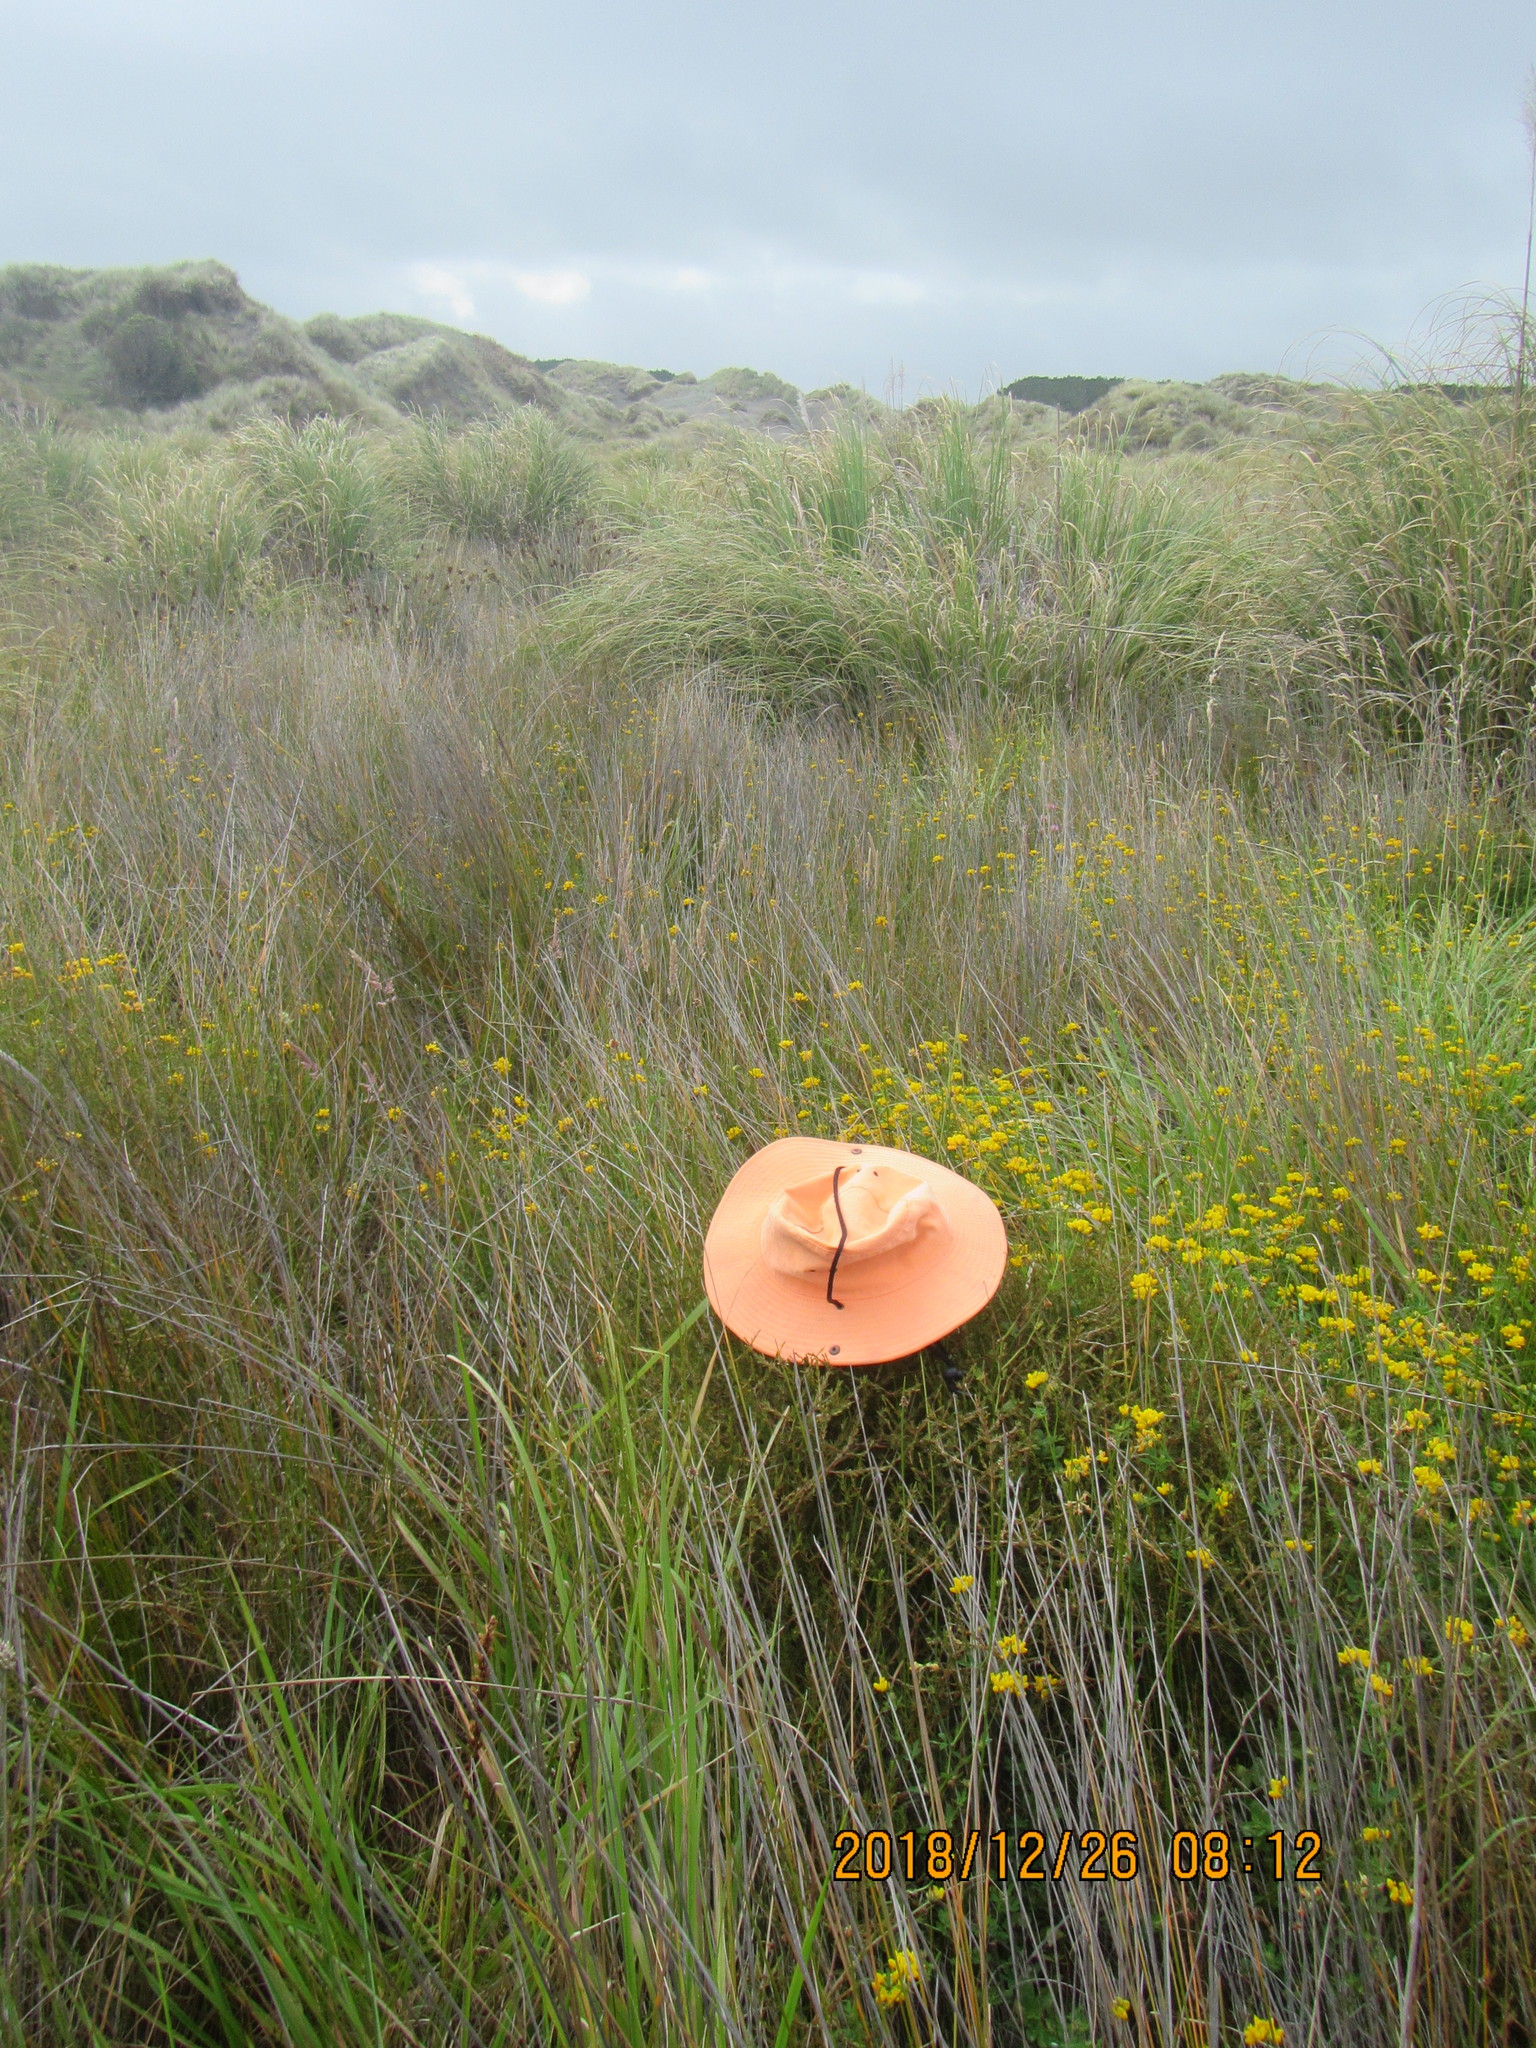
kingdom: Plantae
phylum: Tracheophyta
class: Magnoliopsida
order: Gentianales
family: Rubiaceae
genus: Coprosma
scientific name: Coprosma acerosa
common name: Sand coprosma
